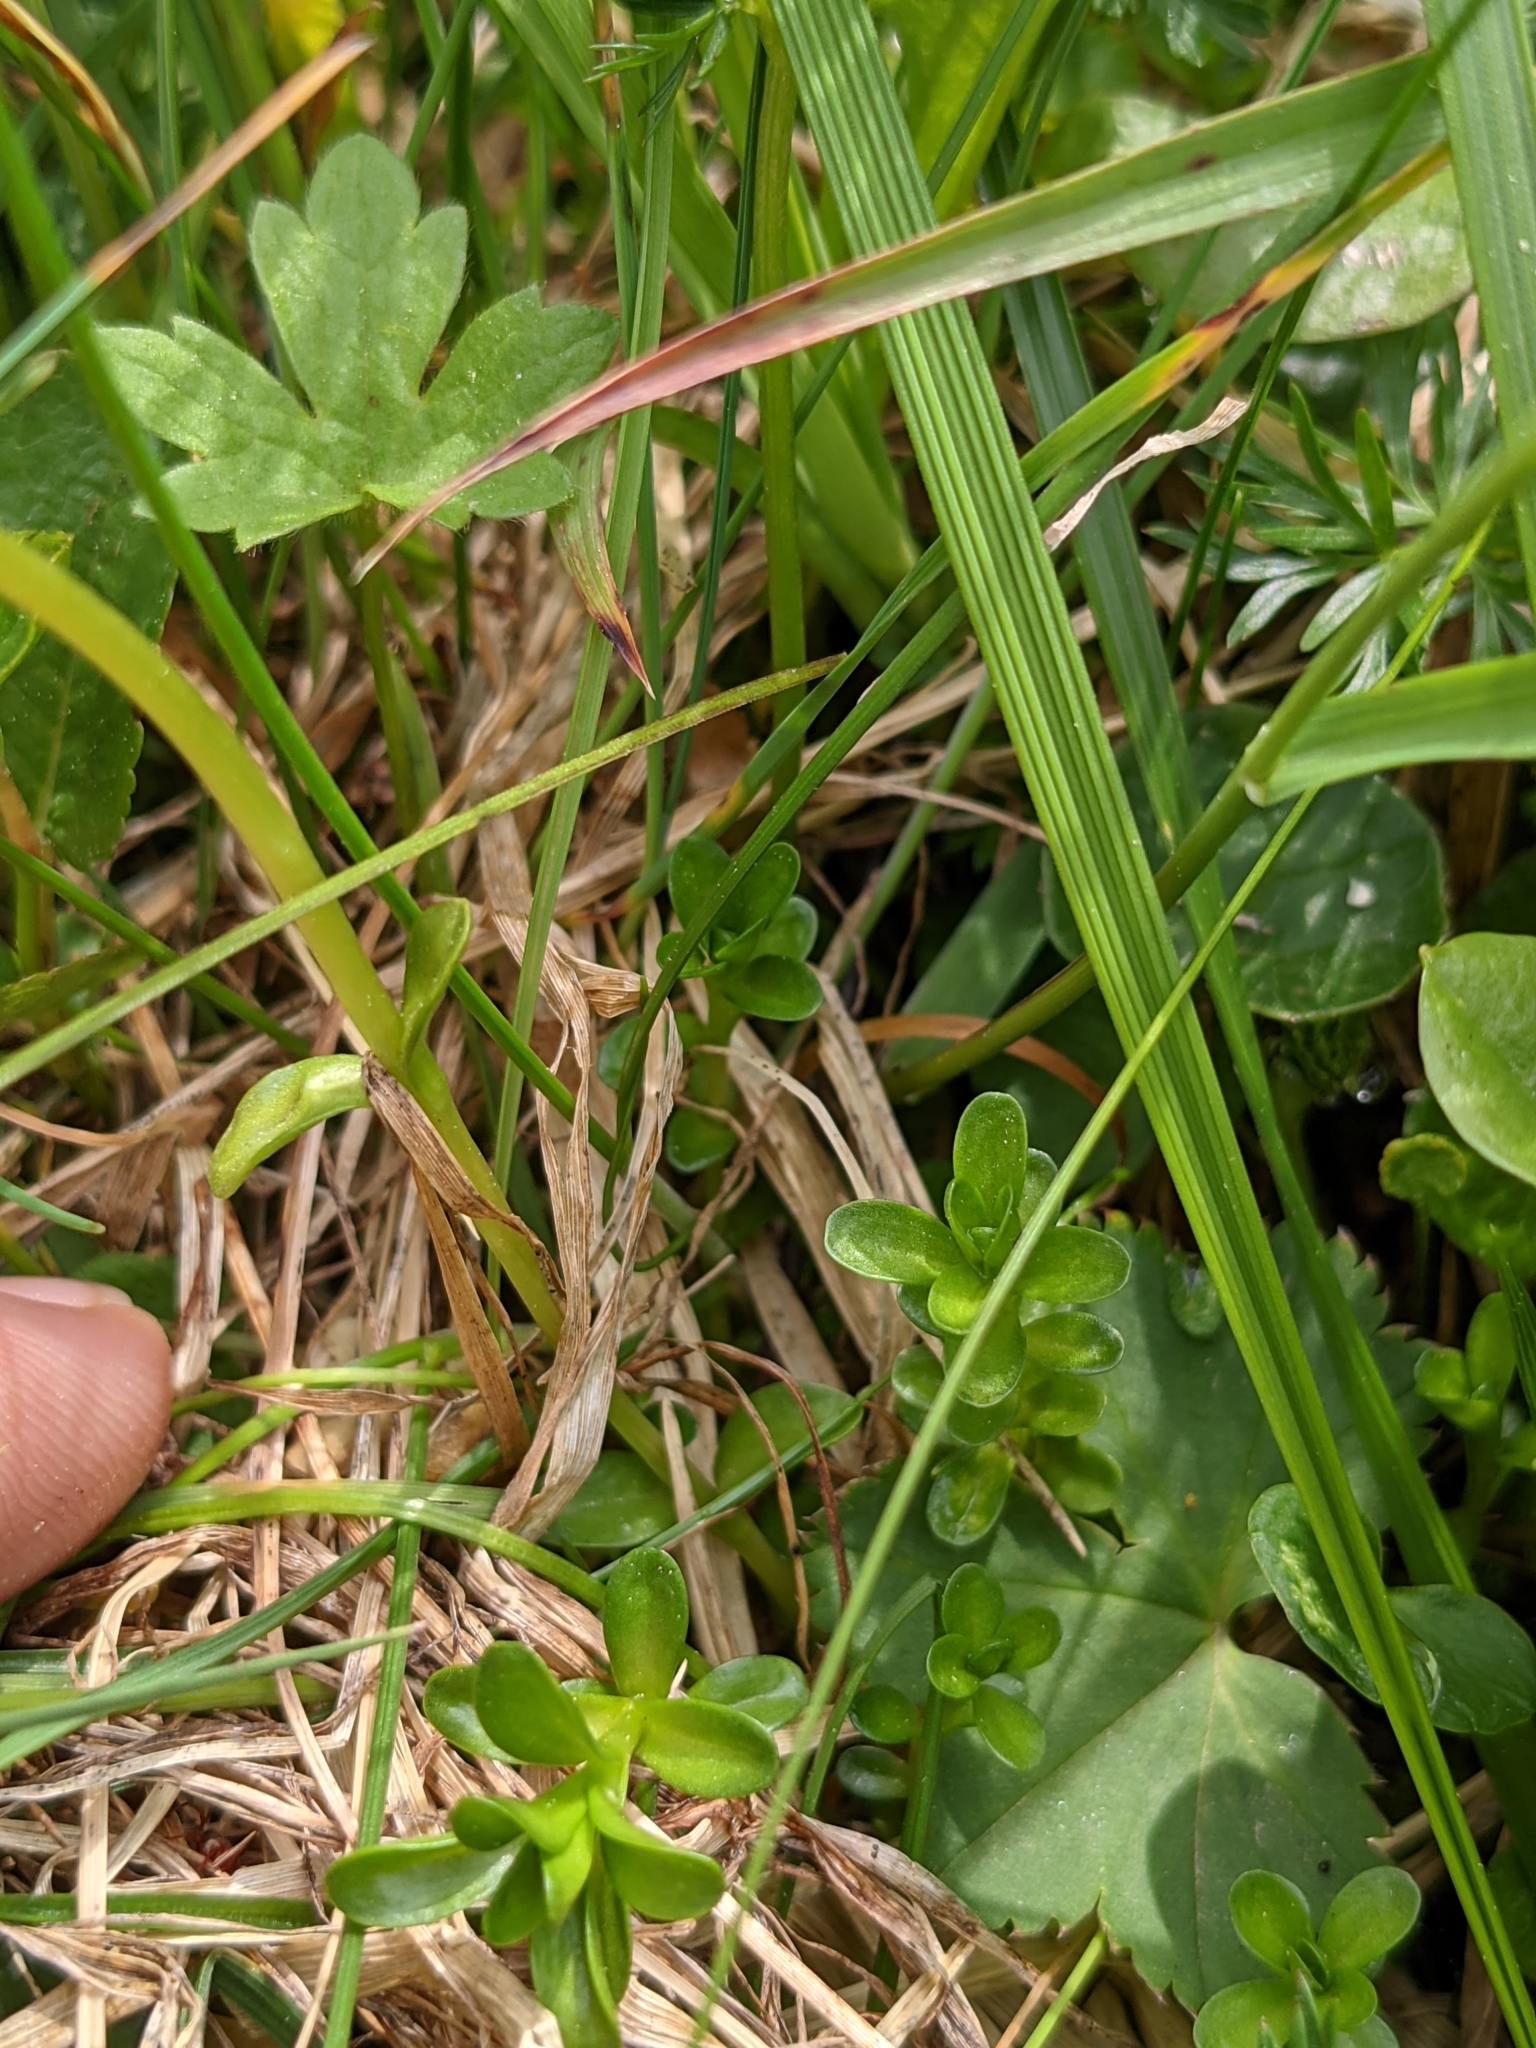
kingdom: Plantae
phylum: Tracheophyta
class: Magnoliopsida
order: Gentianales
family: Gentianaceae
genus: Gentiana
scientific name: Gentiana bavarica
